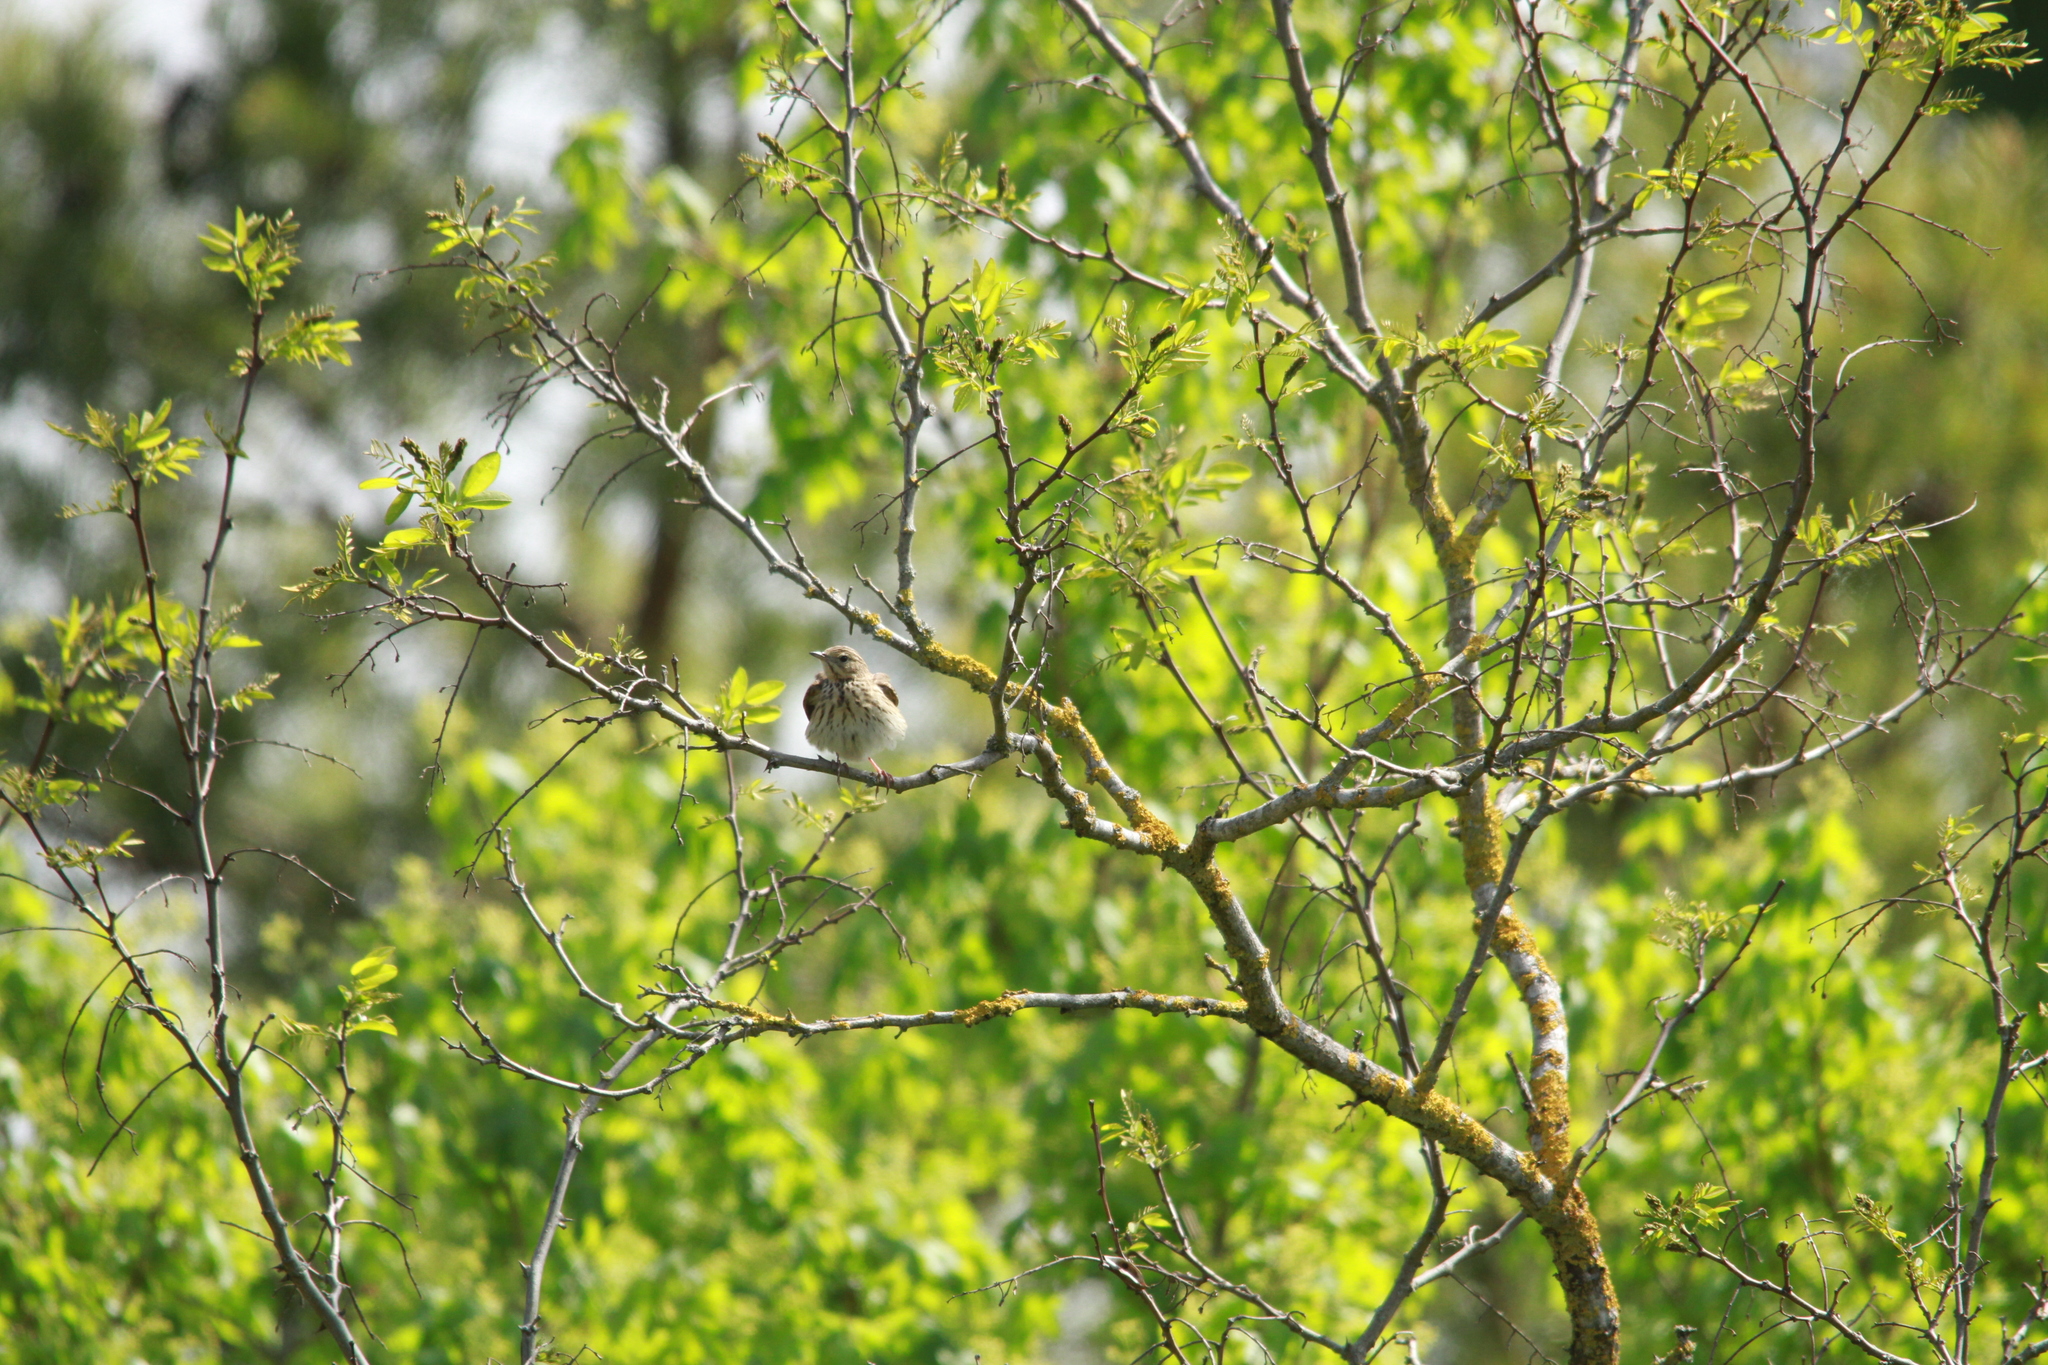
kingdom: Animalia
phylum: Chordata
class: Aves
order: Passeriformes
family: Motacillidae
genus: Anthus
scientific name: Anthus trivialis
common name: Tree pipit
